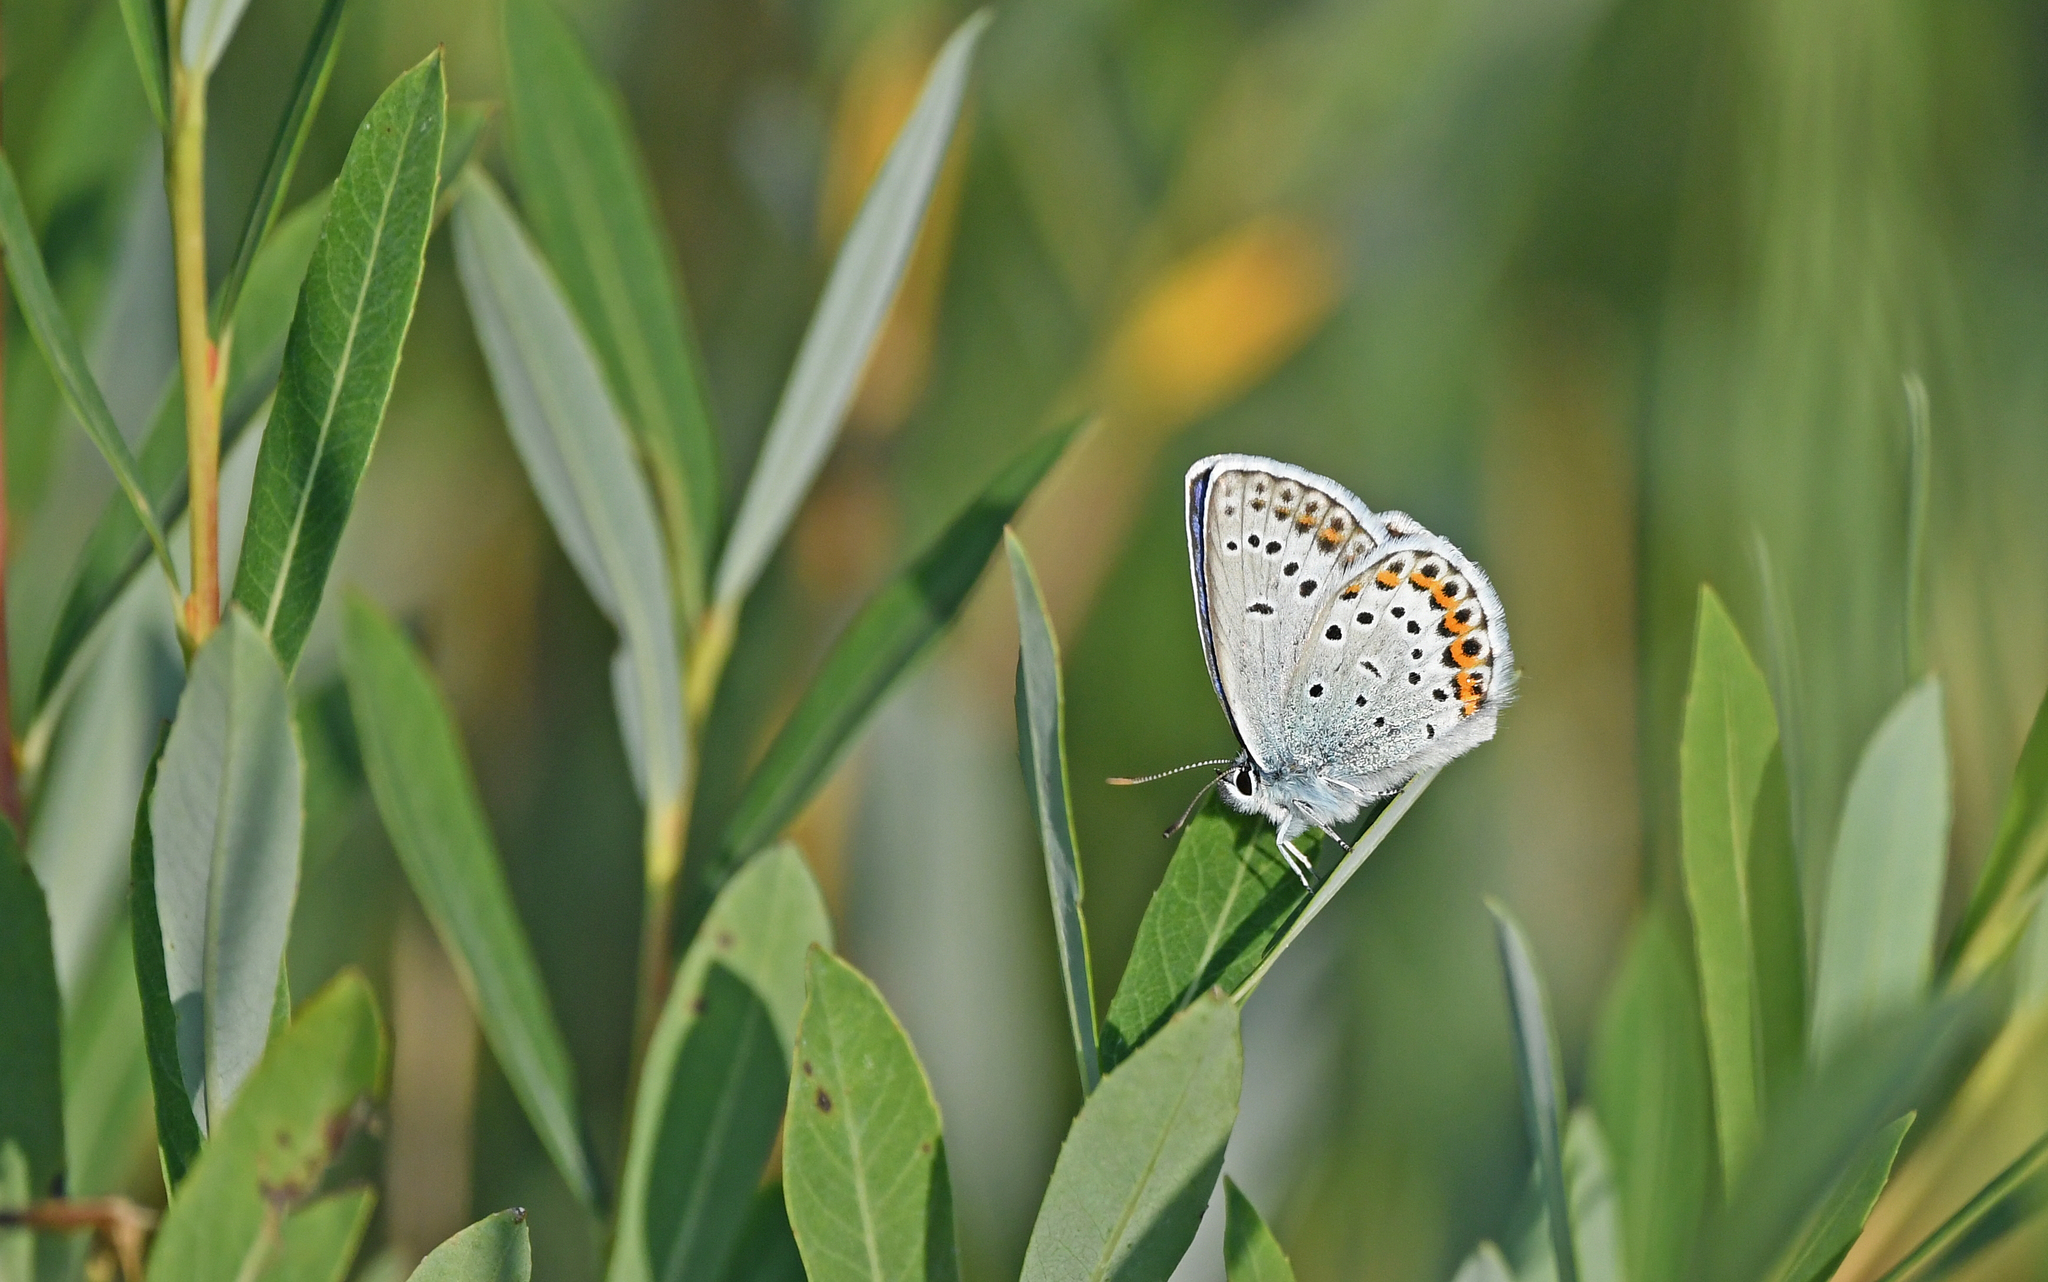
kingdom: Animalia
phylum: Arthropoda
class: Insecta
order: Lepidoptera
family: Lycaenidae
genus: Lycaeides
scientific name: Lycaeides idas
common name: Northern blue
